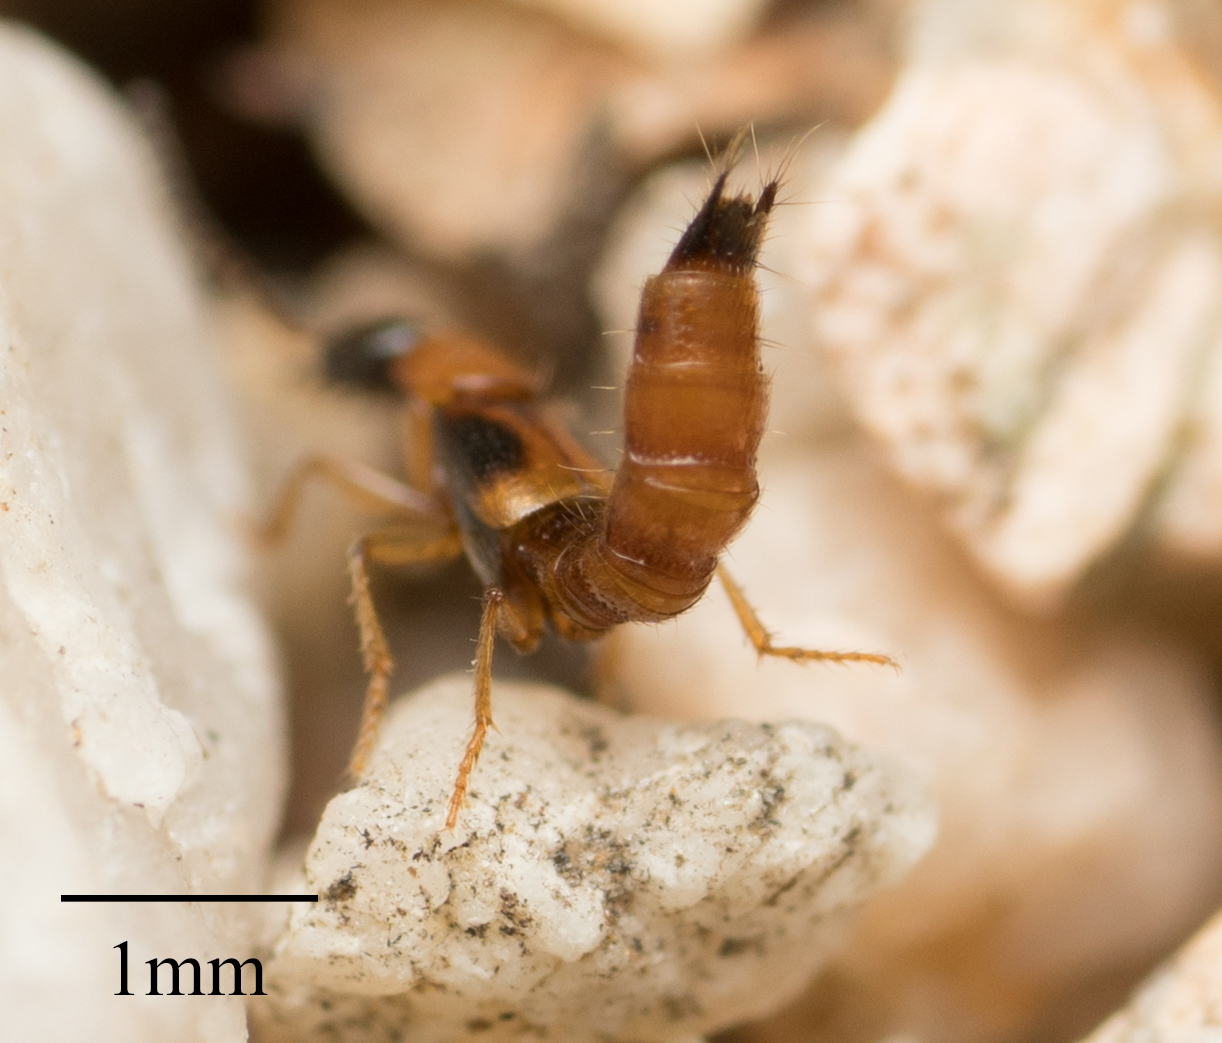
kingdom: Animalia
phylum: Arthropoda
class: Insecta
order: Coleoptera
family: Staphylinidae
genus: Neobisnius
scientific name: Neobisnius terminalis
